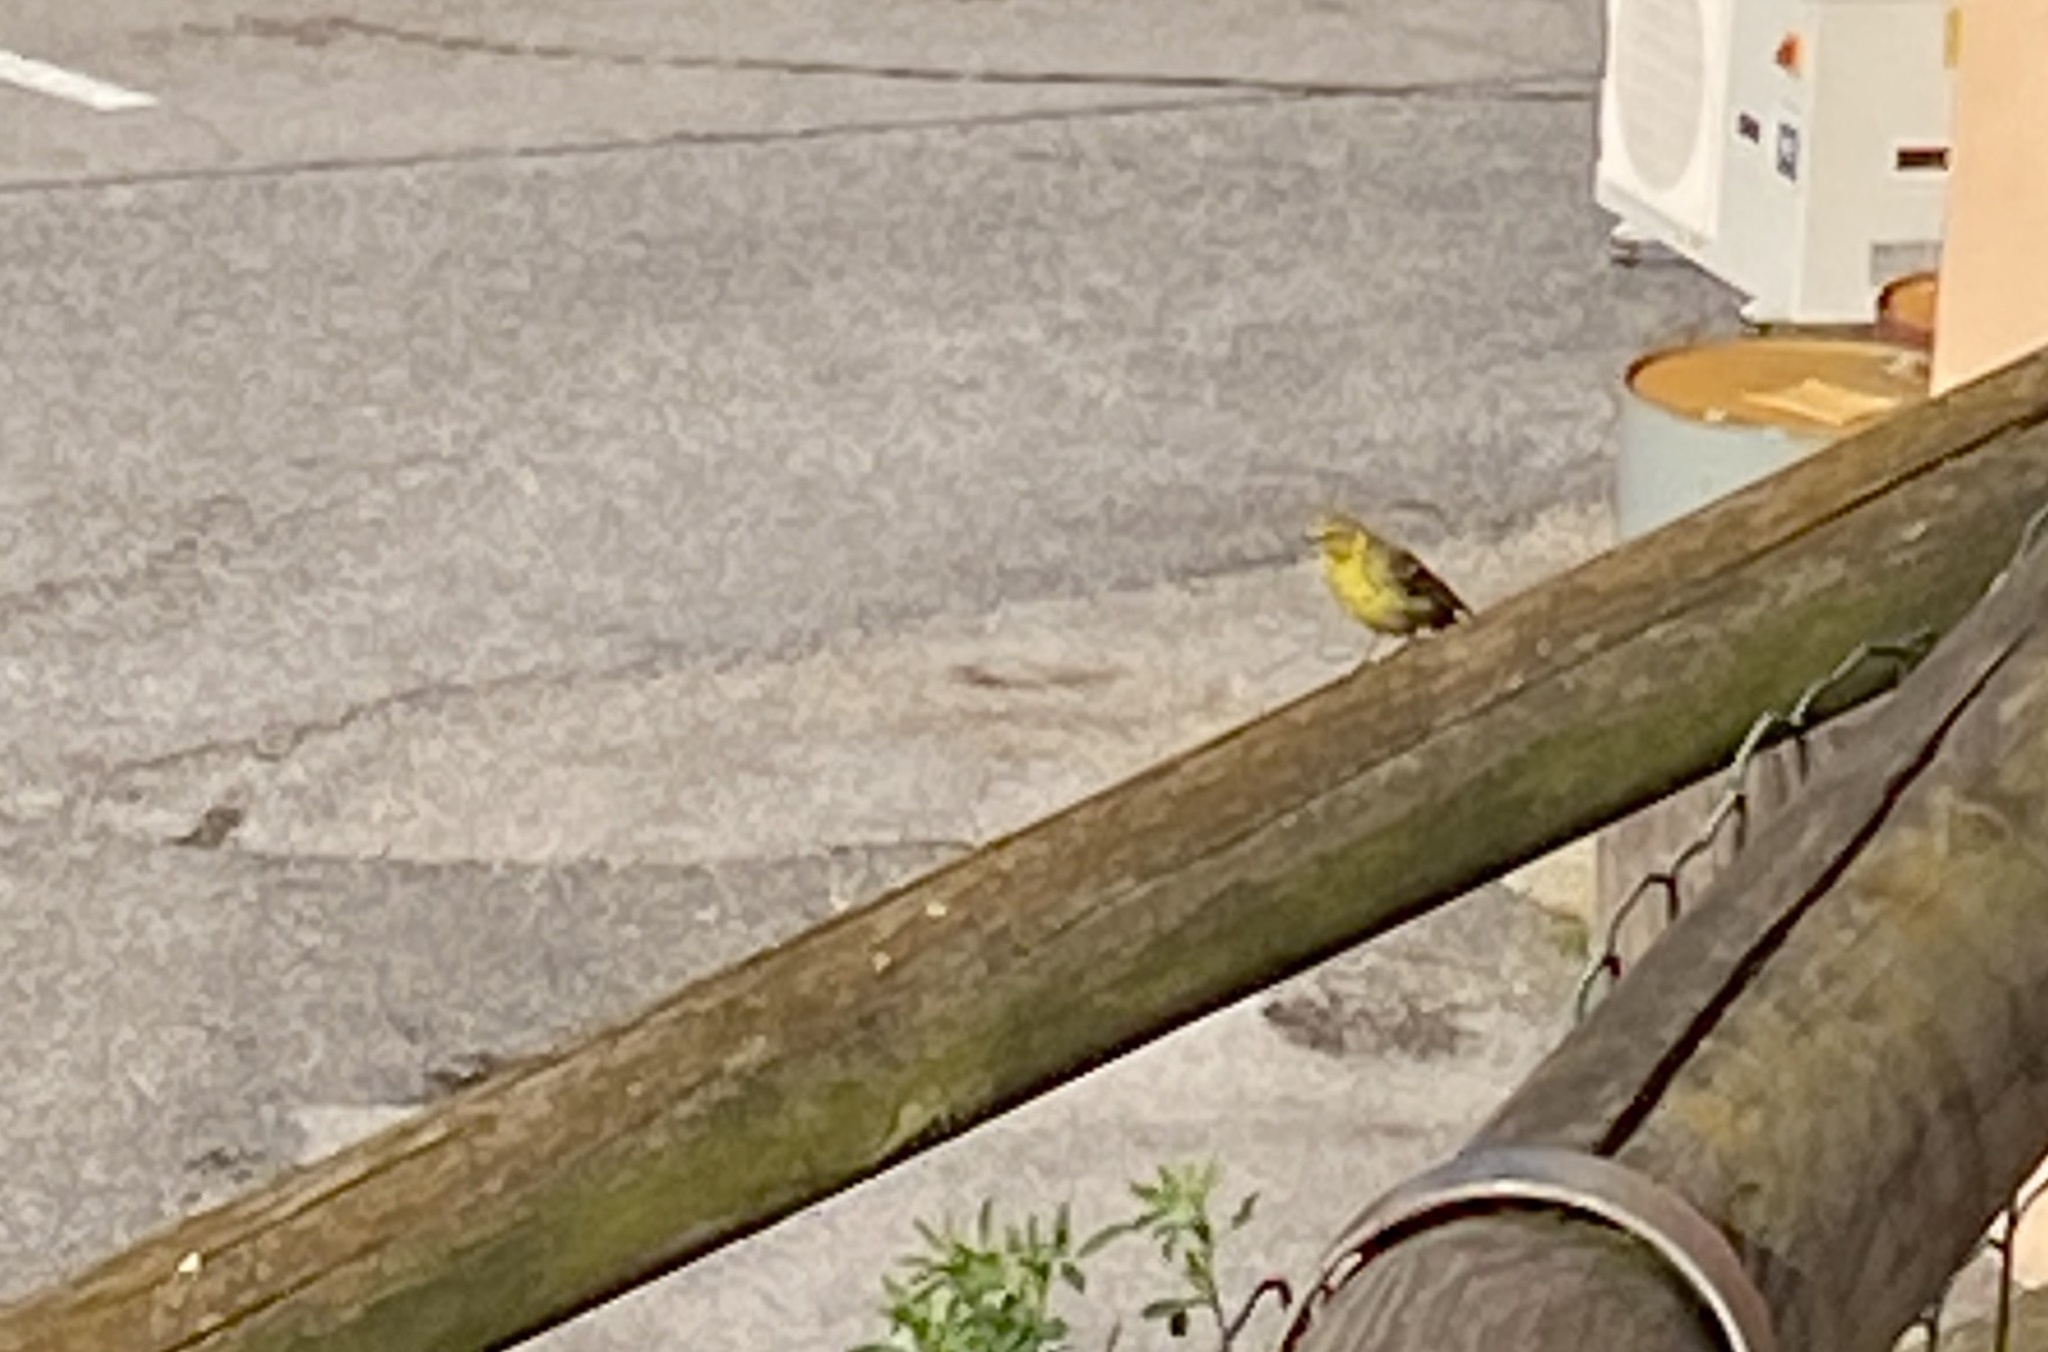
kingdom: Animalia
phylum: Chordata
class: Aves
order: Passeriformes
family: Fringillidae
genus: Serinus
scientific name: Serinus serinus
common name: European serin
